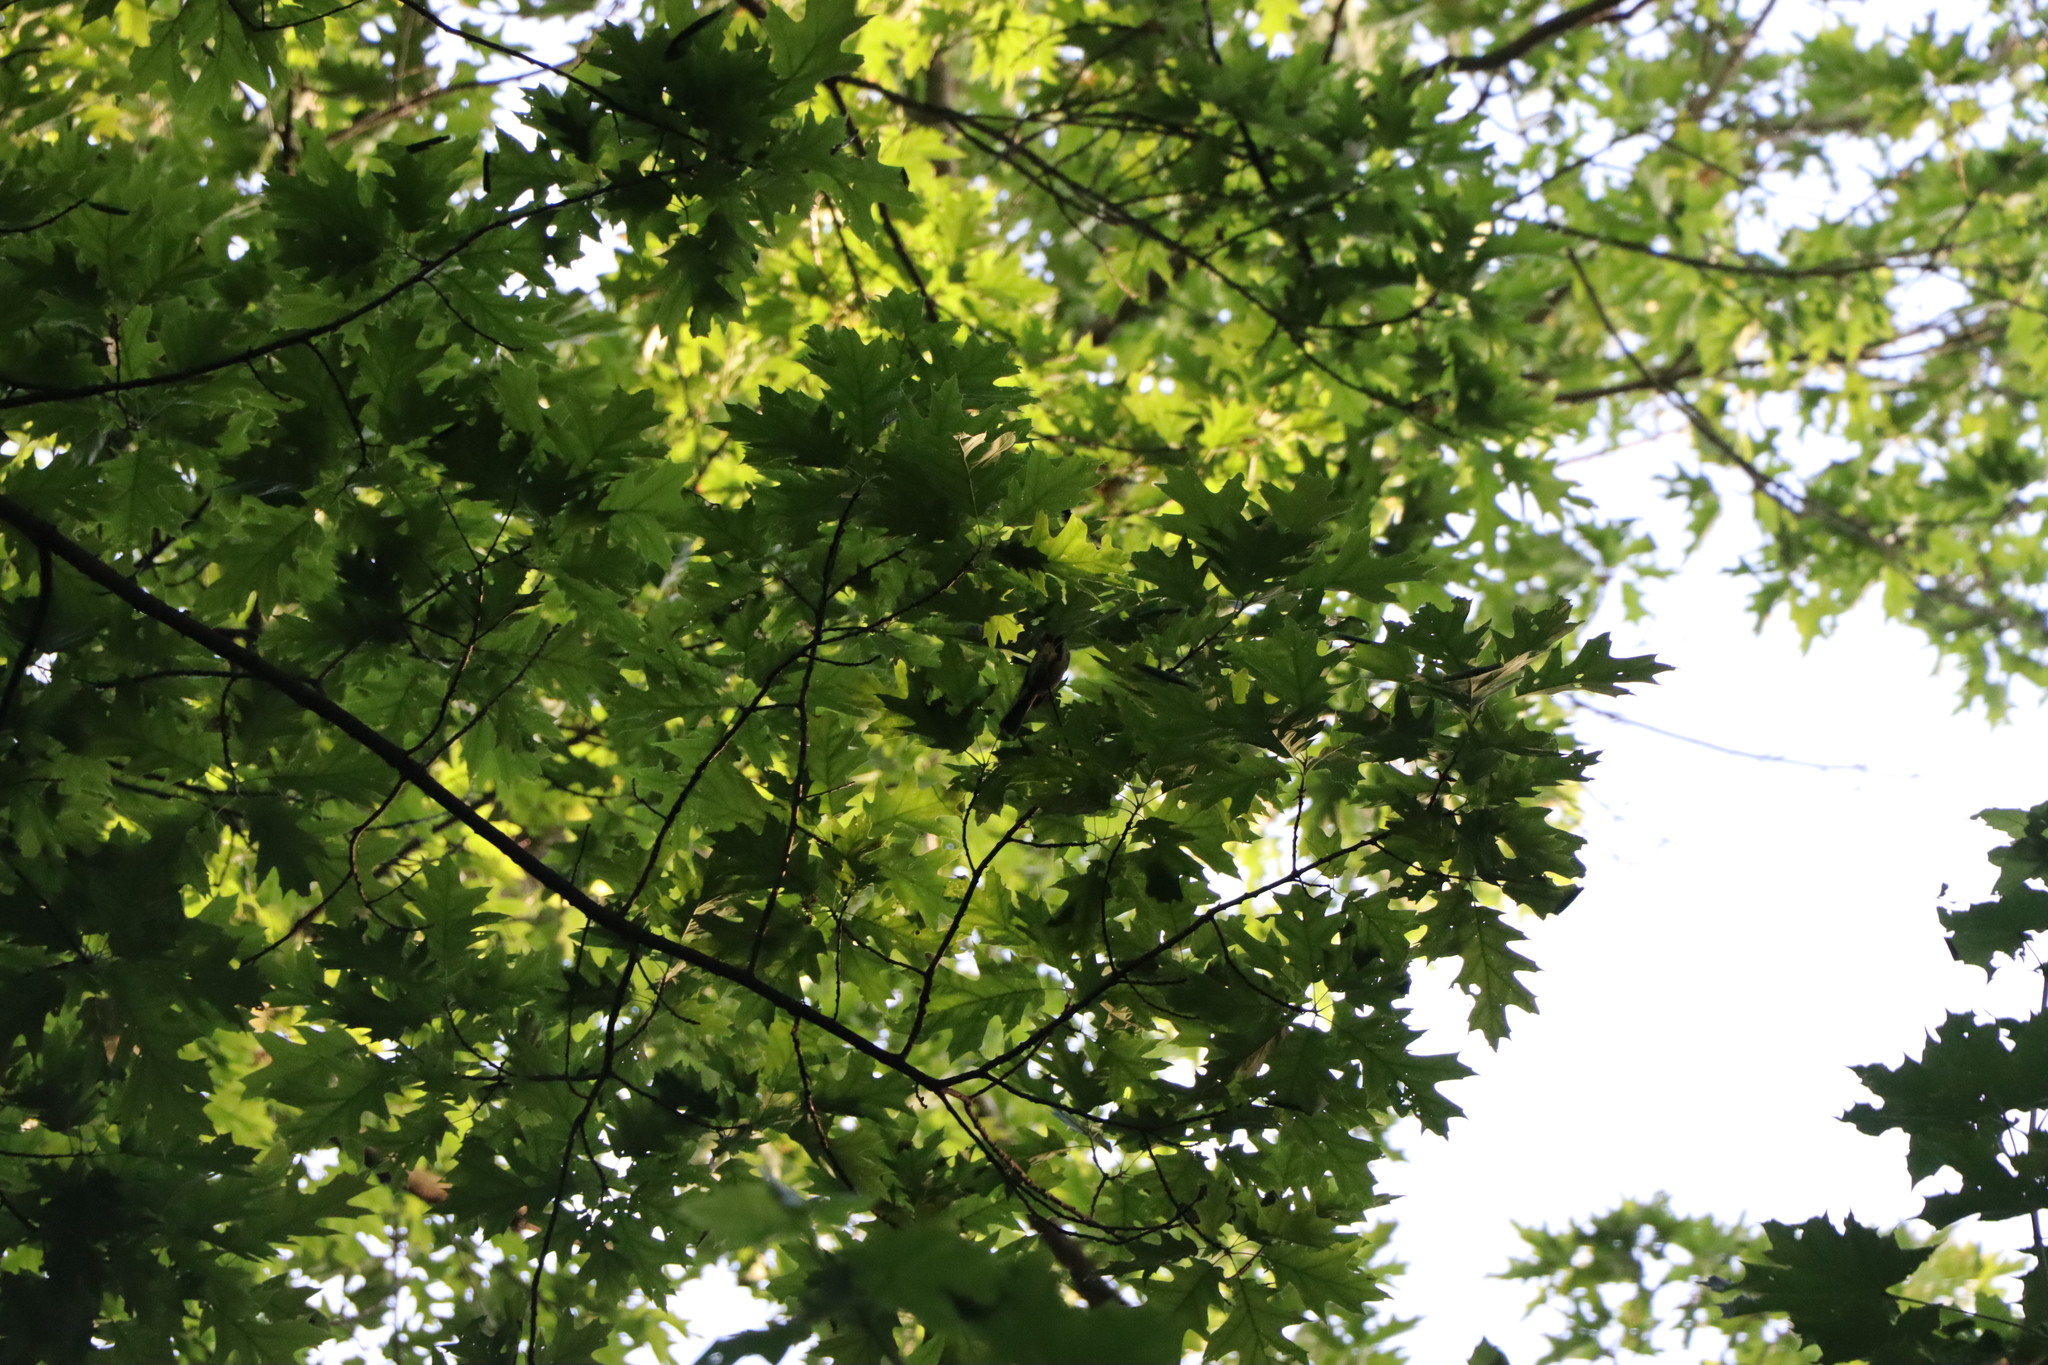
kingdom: Animalia
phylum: Chordata
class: Aves
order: Passeriformes
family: Paridae
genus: Parus
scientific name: Parus major
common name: Great tit
